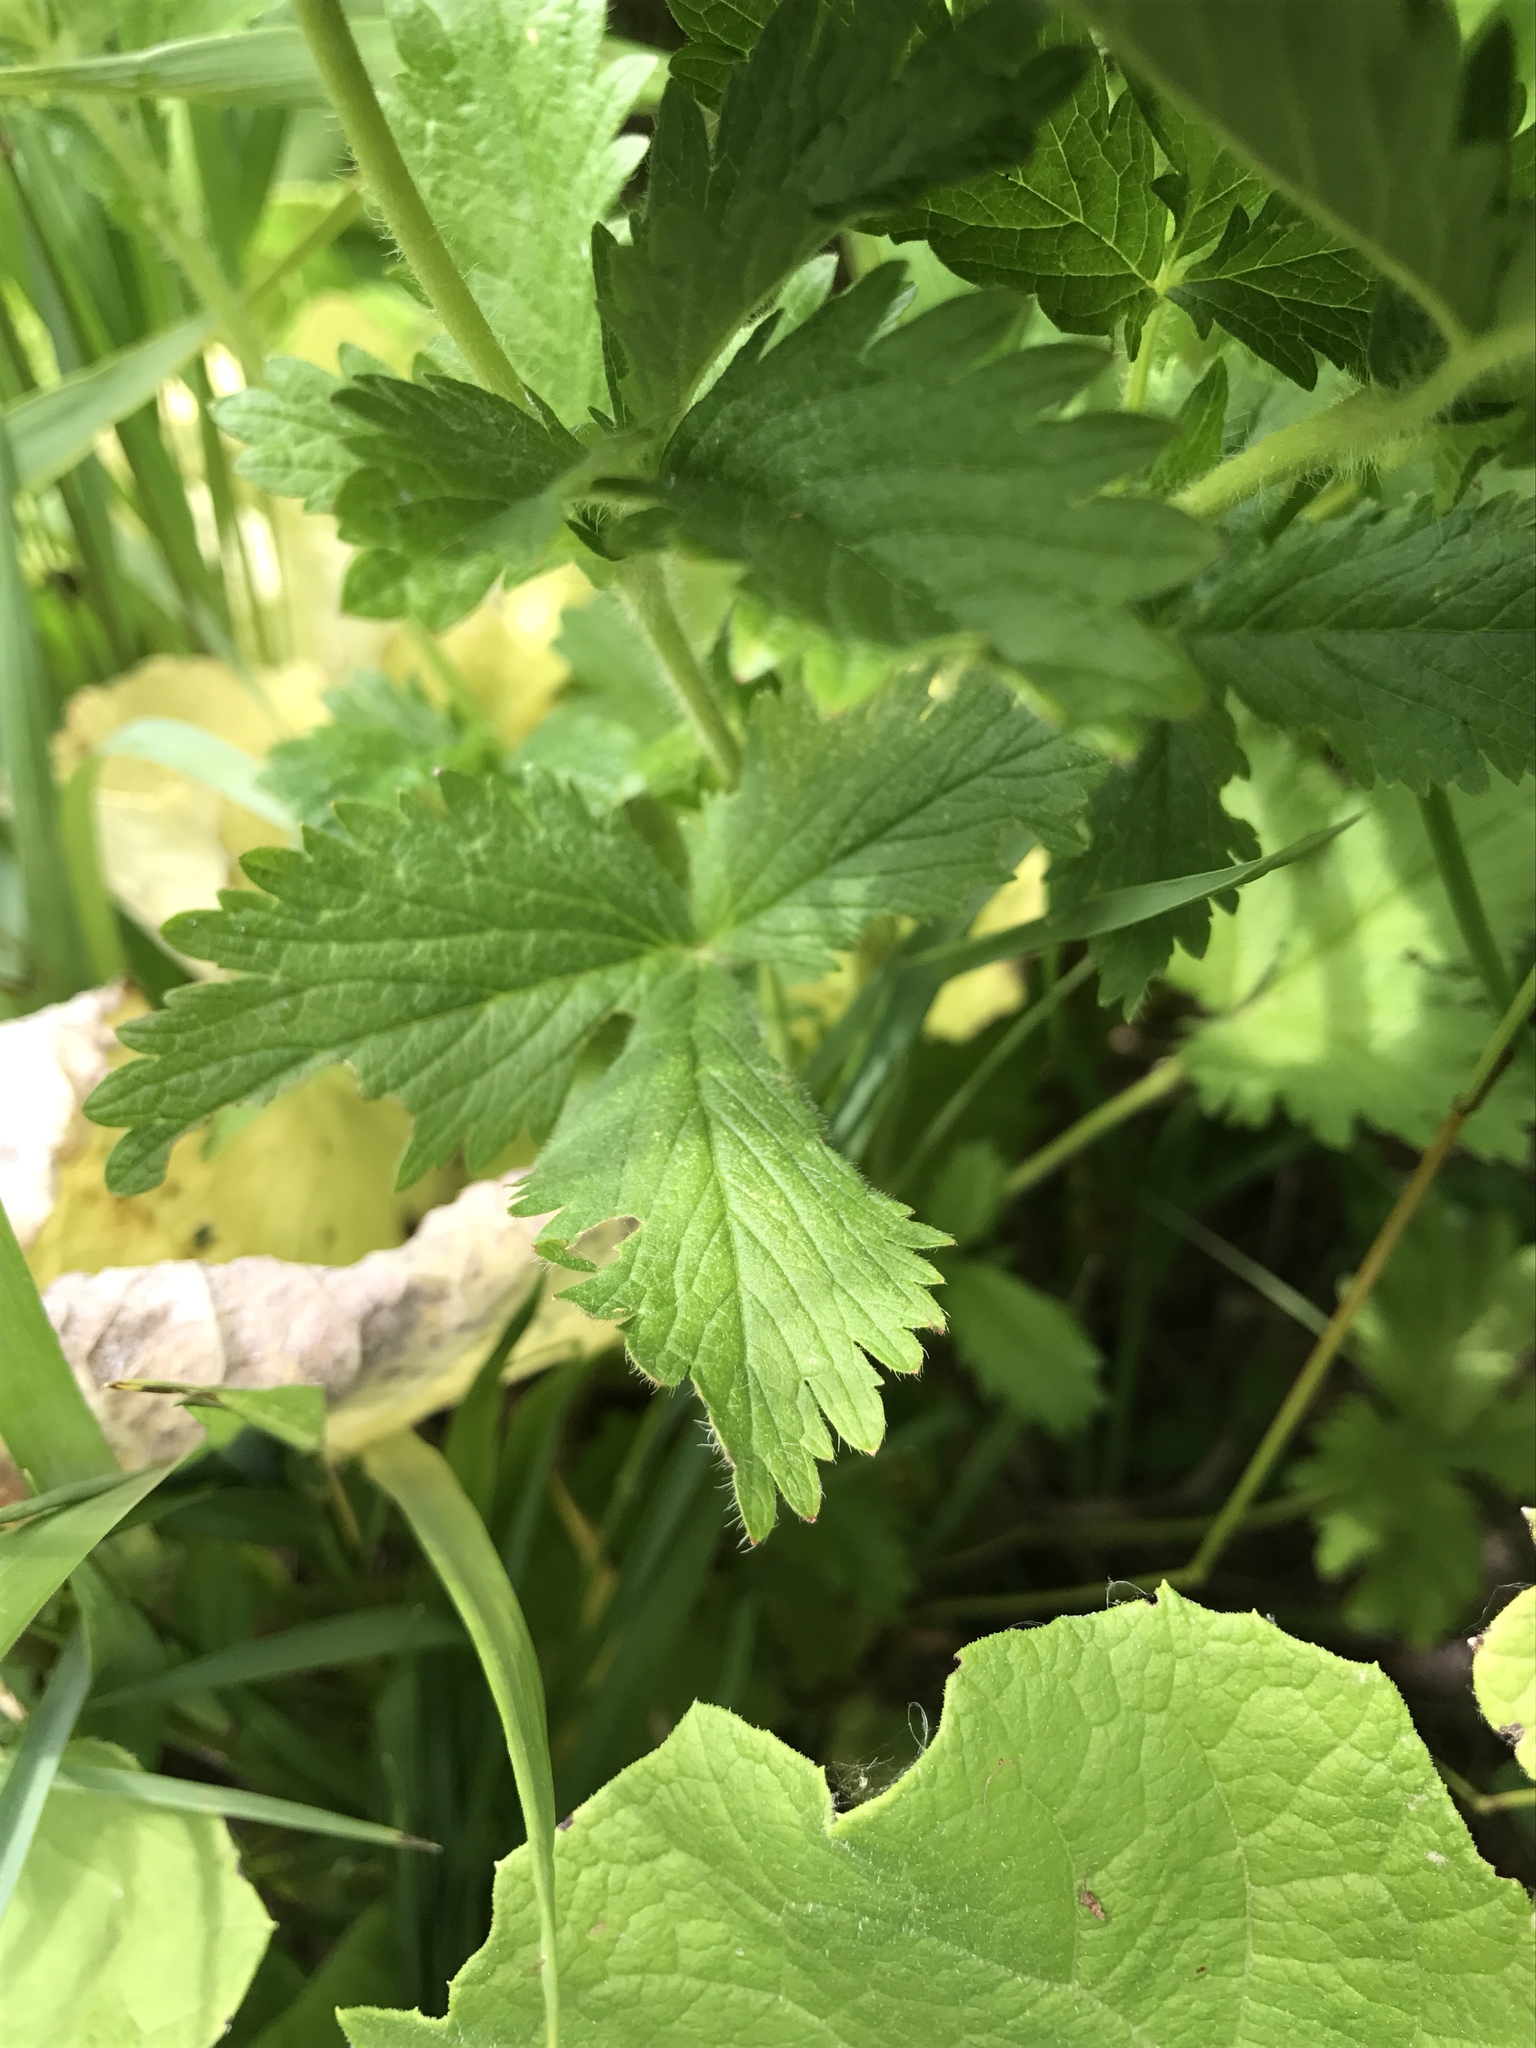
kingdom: Plantae
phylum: Tracheophyta
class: Magnoliopsida
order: Rosales
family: Rosaceae
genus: Potentilla
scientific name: Potentilla norvegica
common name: Ternate-leaved cinquefoil
